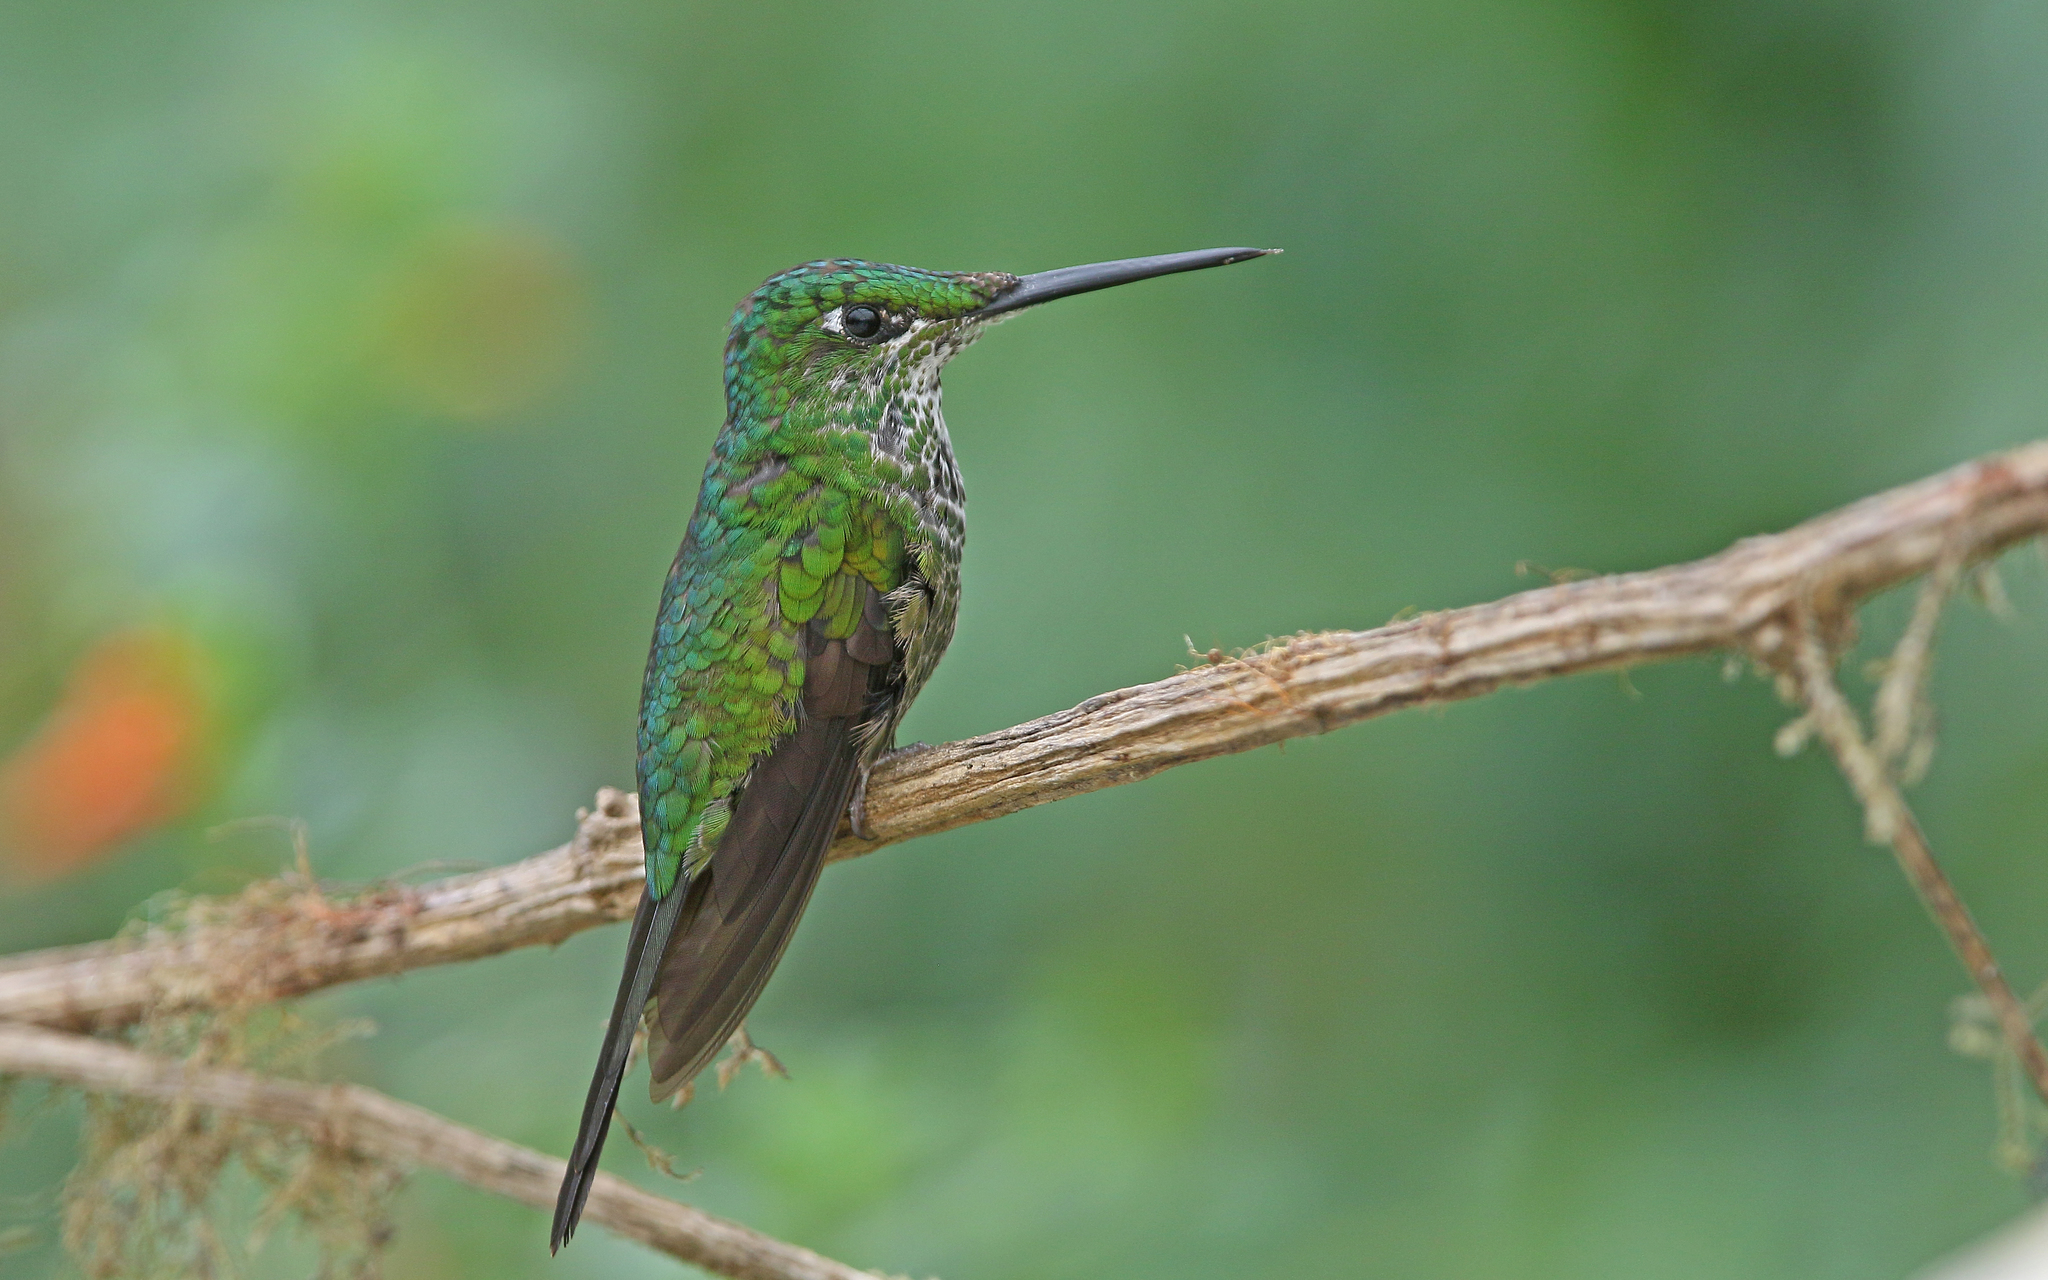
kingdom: Animalia
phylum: Chordata
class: Aves
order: Apodiformes
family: Trochilidae
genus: Heliodoxa
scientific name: Heliodoxa imperatrix
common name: Empress brilliant
